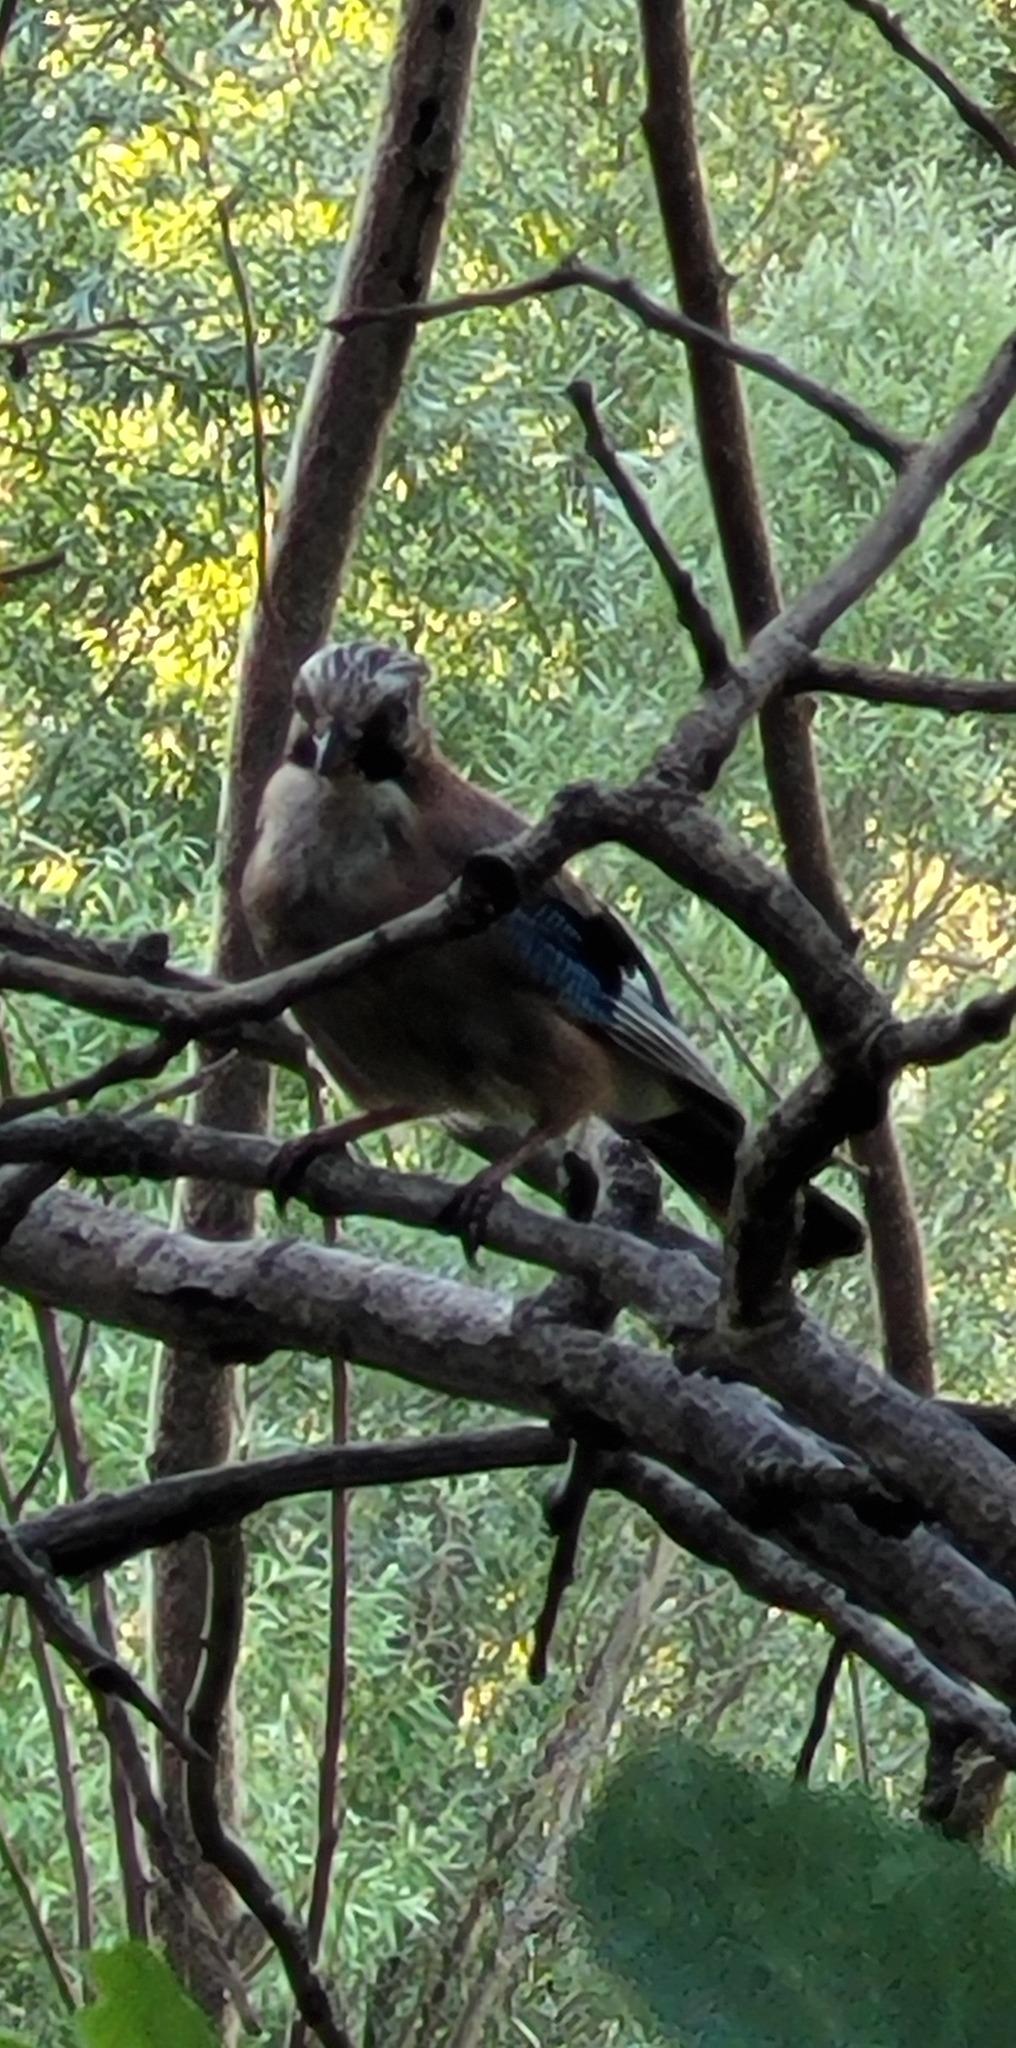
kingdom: Animalia
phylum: Chordata
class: Aves
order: Passeriformes
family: Corvidae
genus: Garrulus
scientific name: Garrulus glandarius
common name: Eurasian jay
